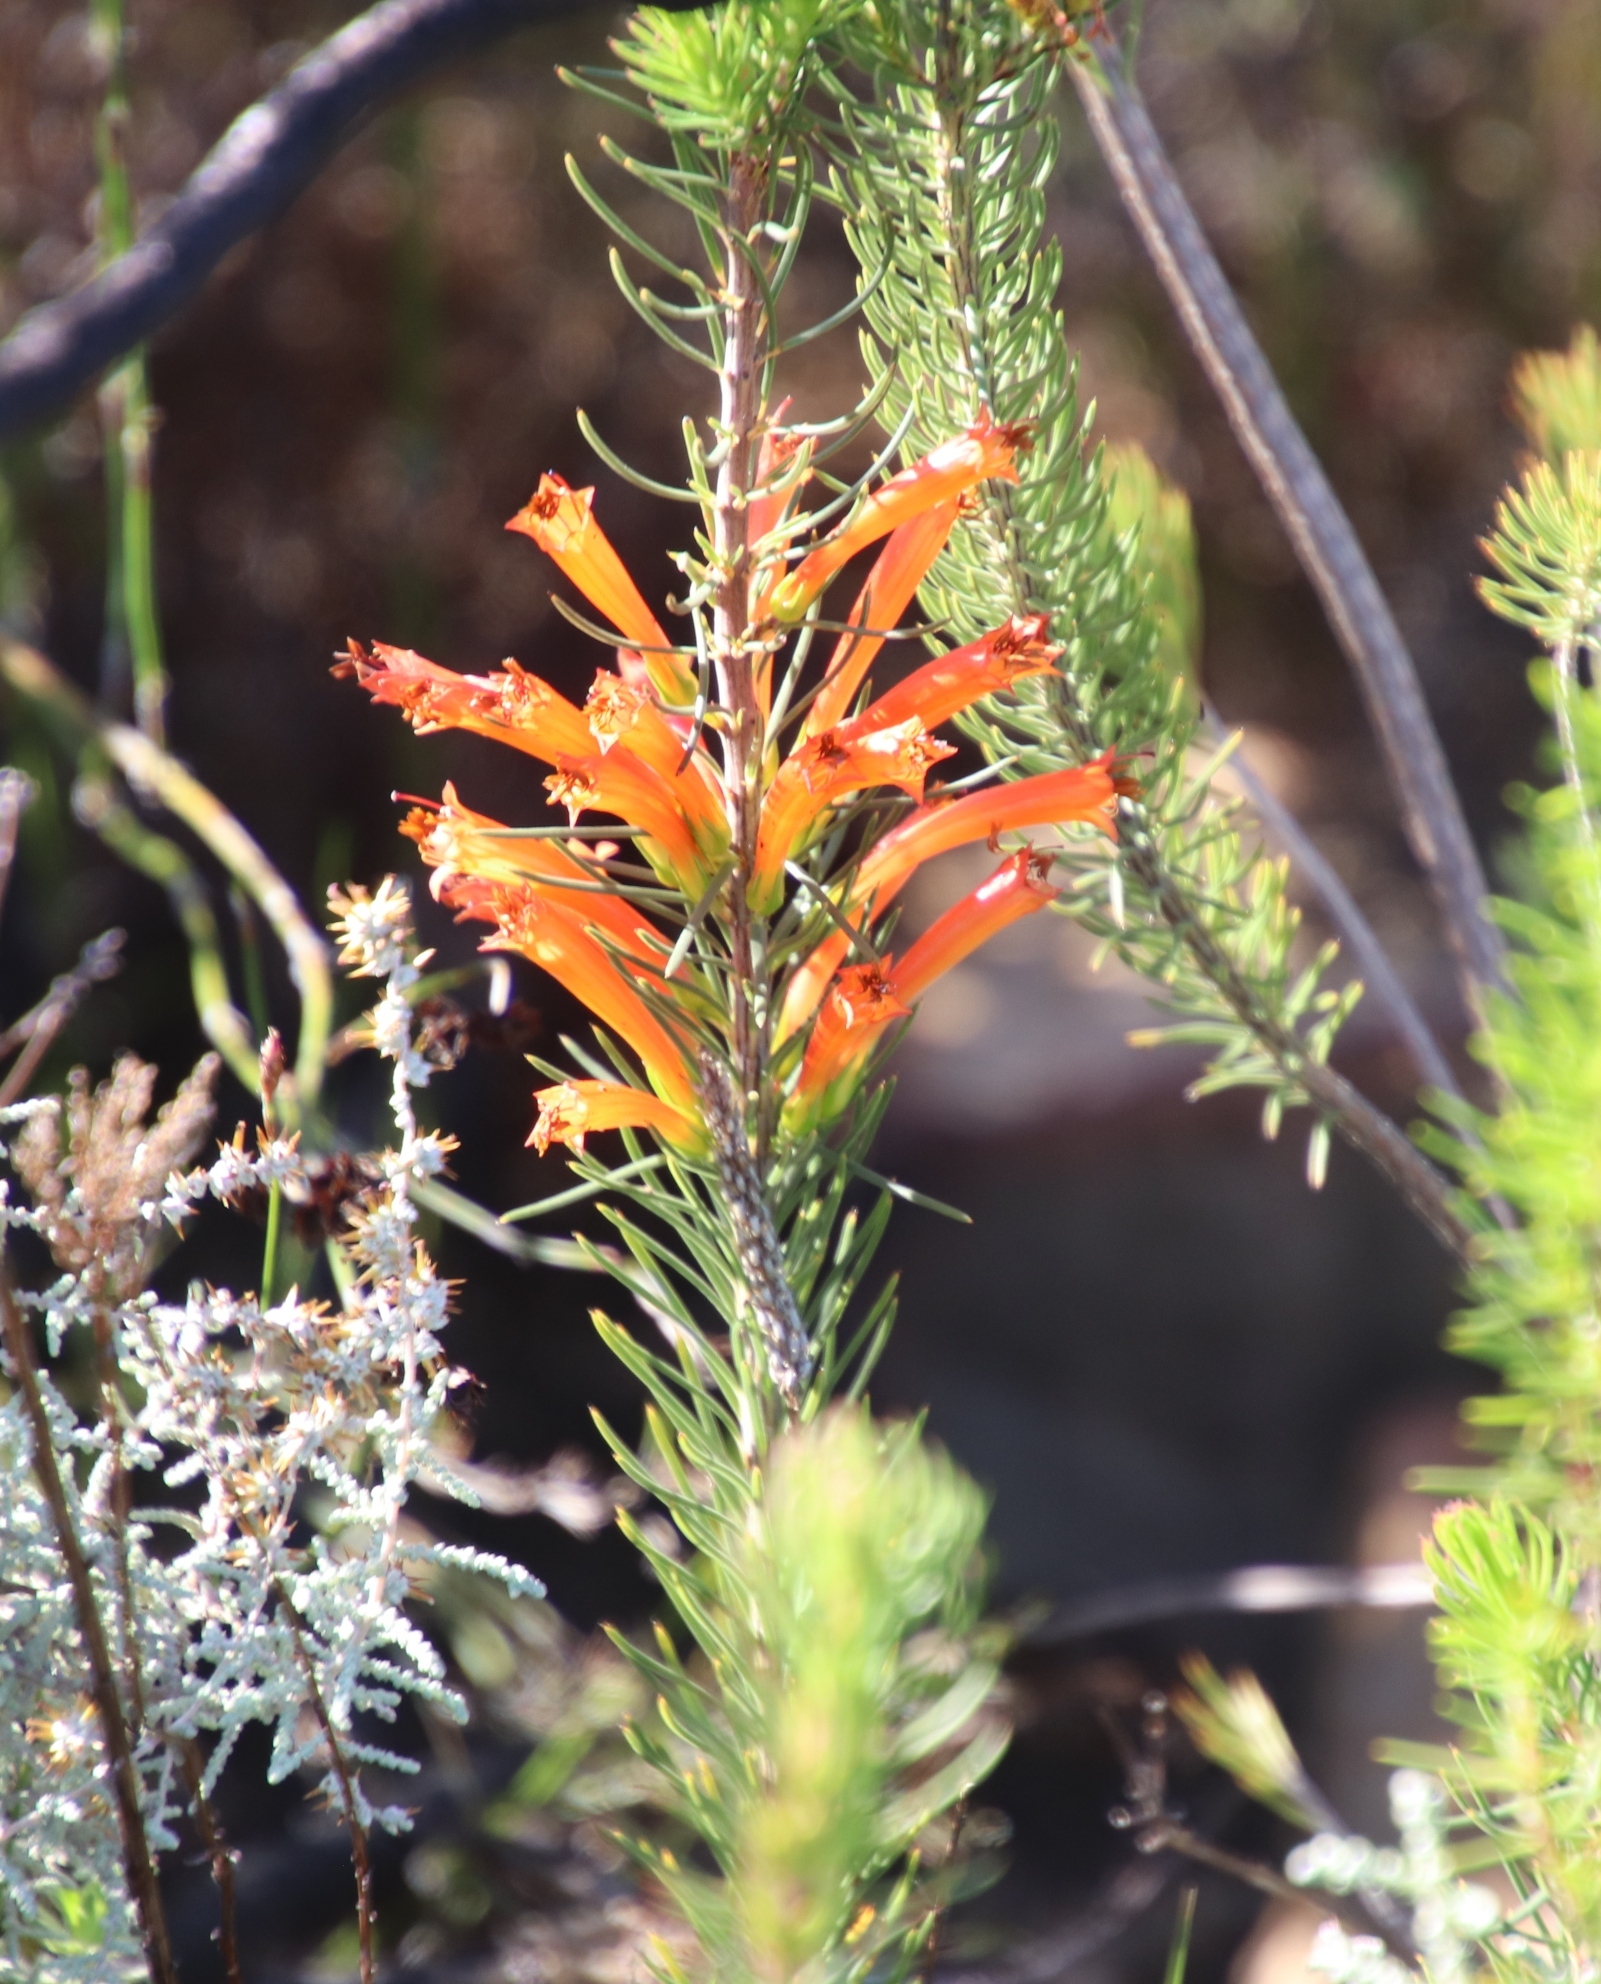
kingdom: Plantae
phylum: Tracheophyta
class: Magnoliopsida
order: Ericales
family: Ericaceae
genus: Erica
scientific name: Erica grandiflora
